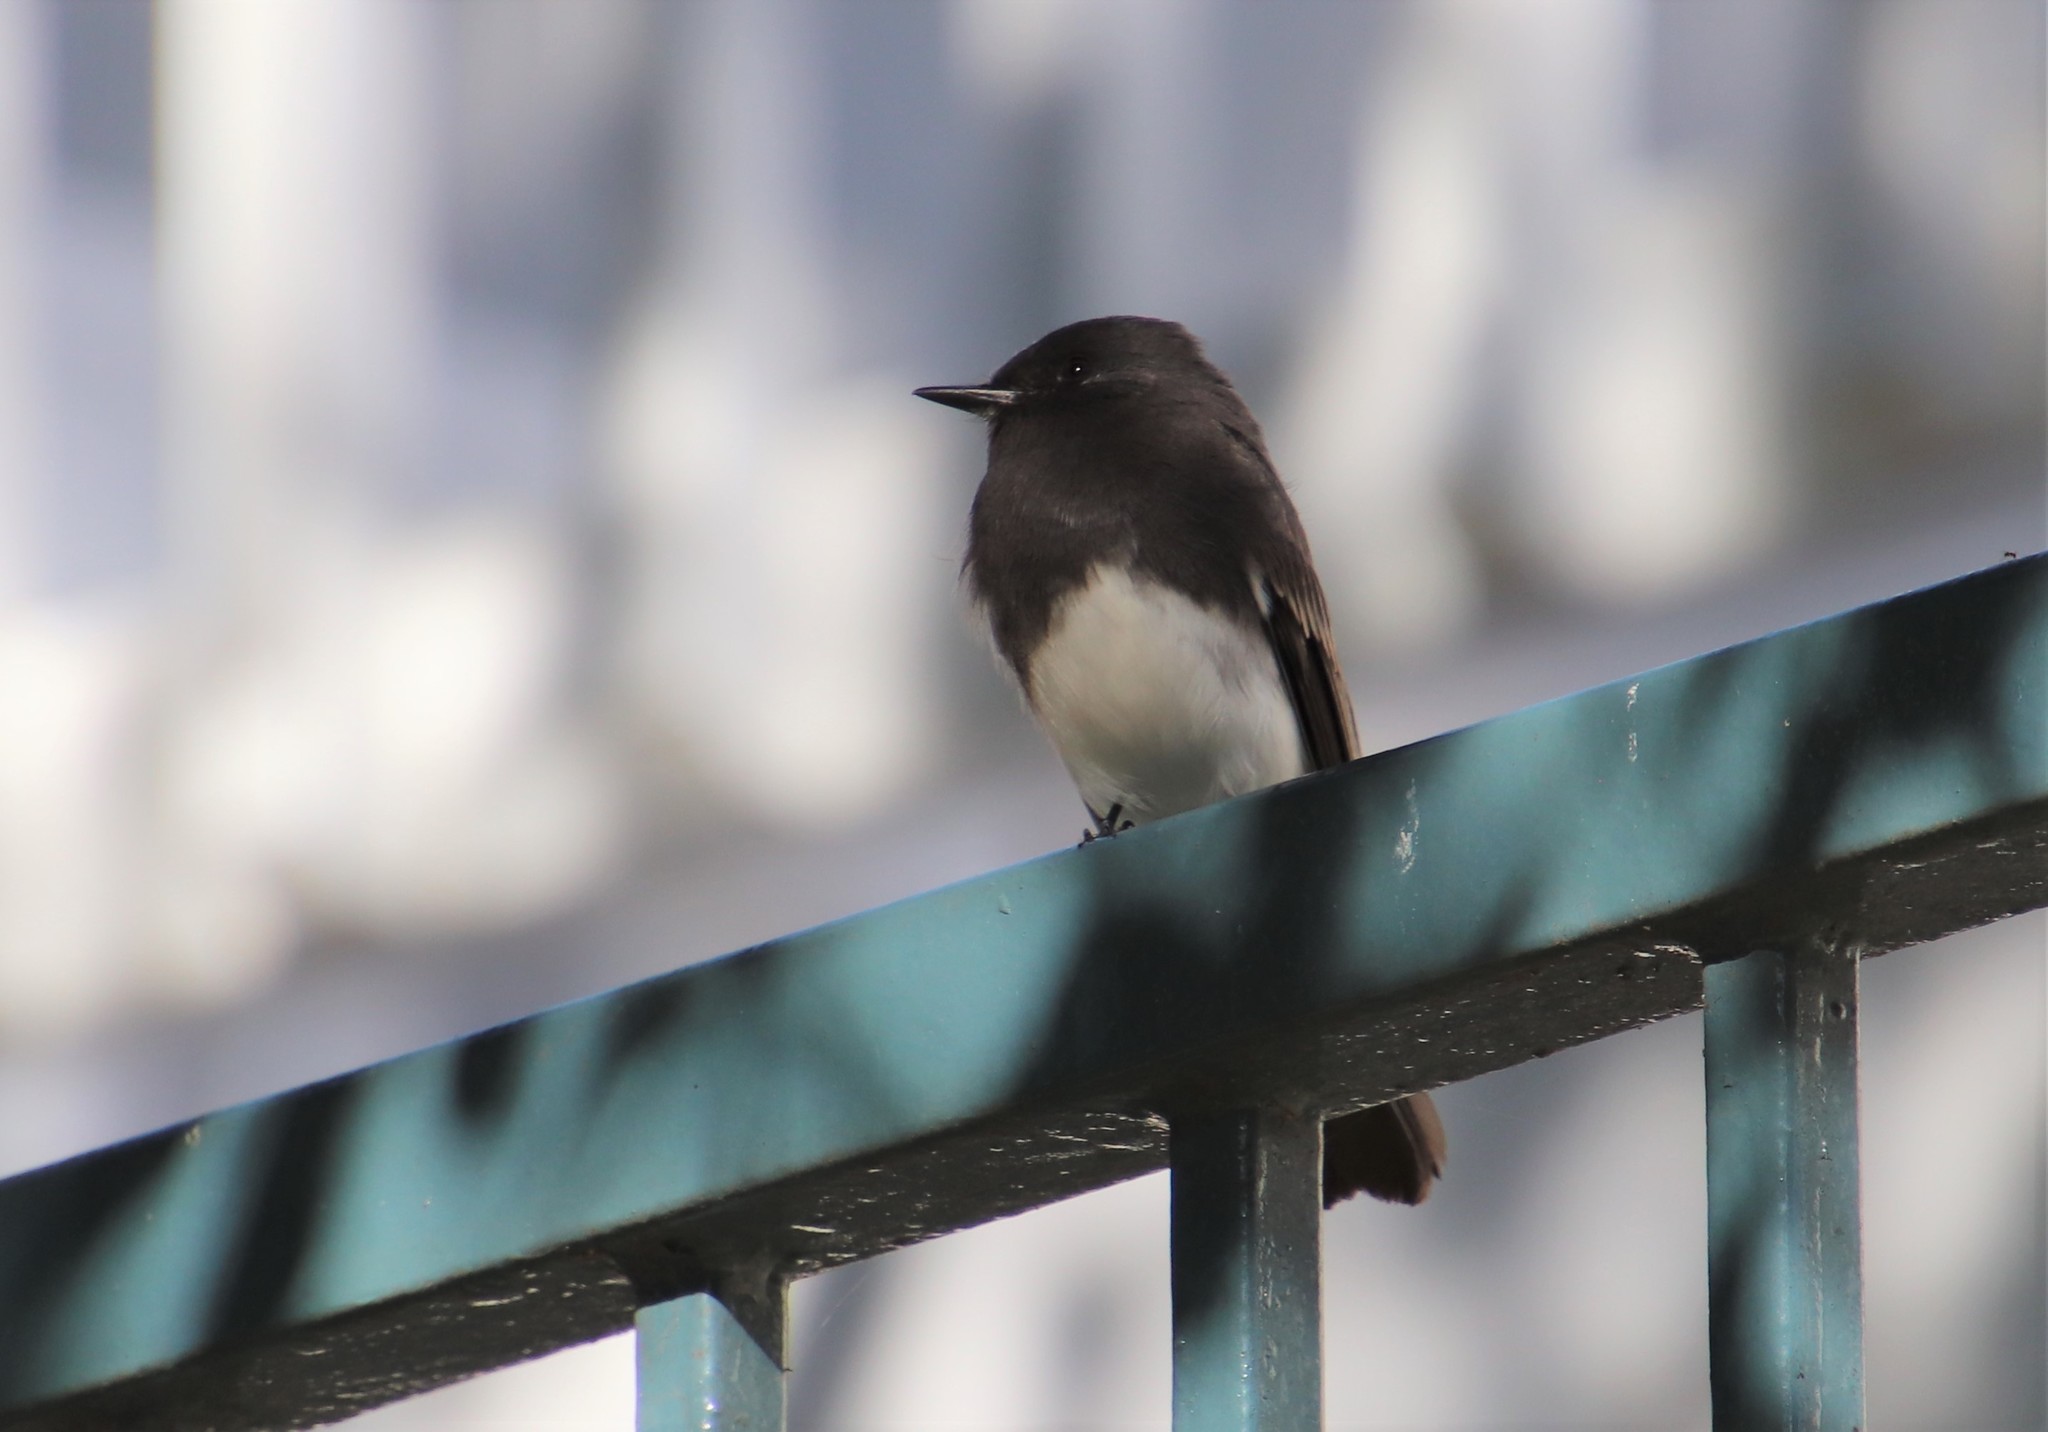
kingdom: Animalia
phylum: Chordata
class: Aves
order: Passeriformes
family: Tyrannidae
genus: Sayornis
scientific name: Sayornis nigricans
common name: Black phoebe
